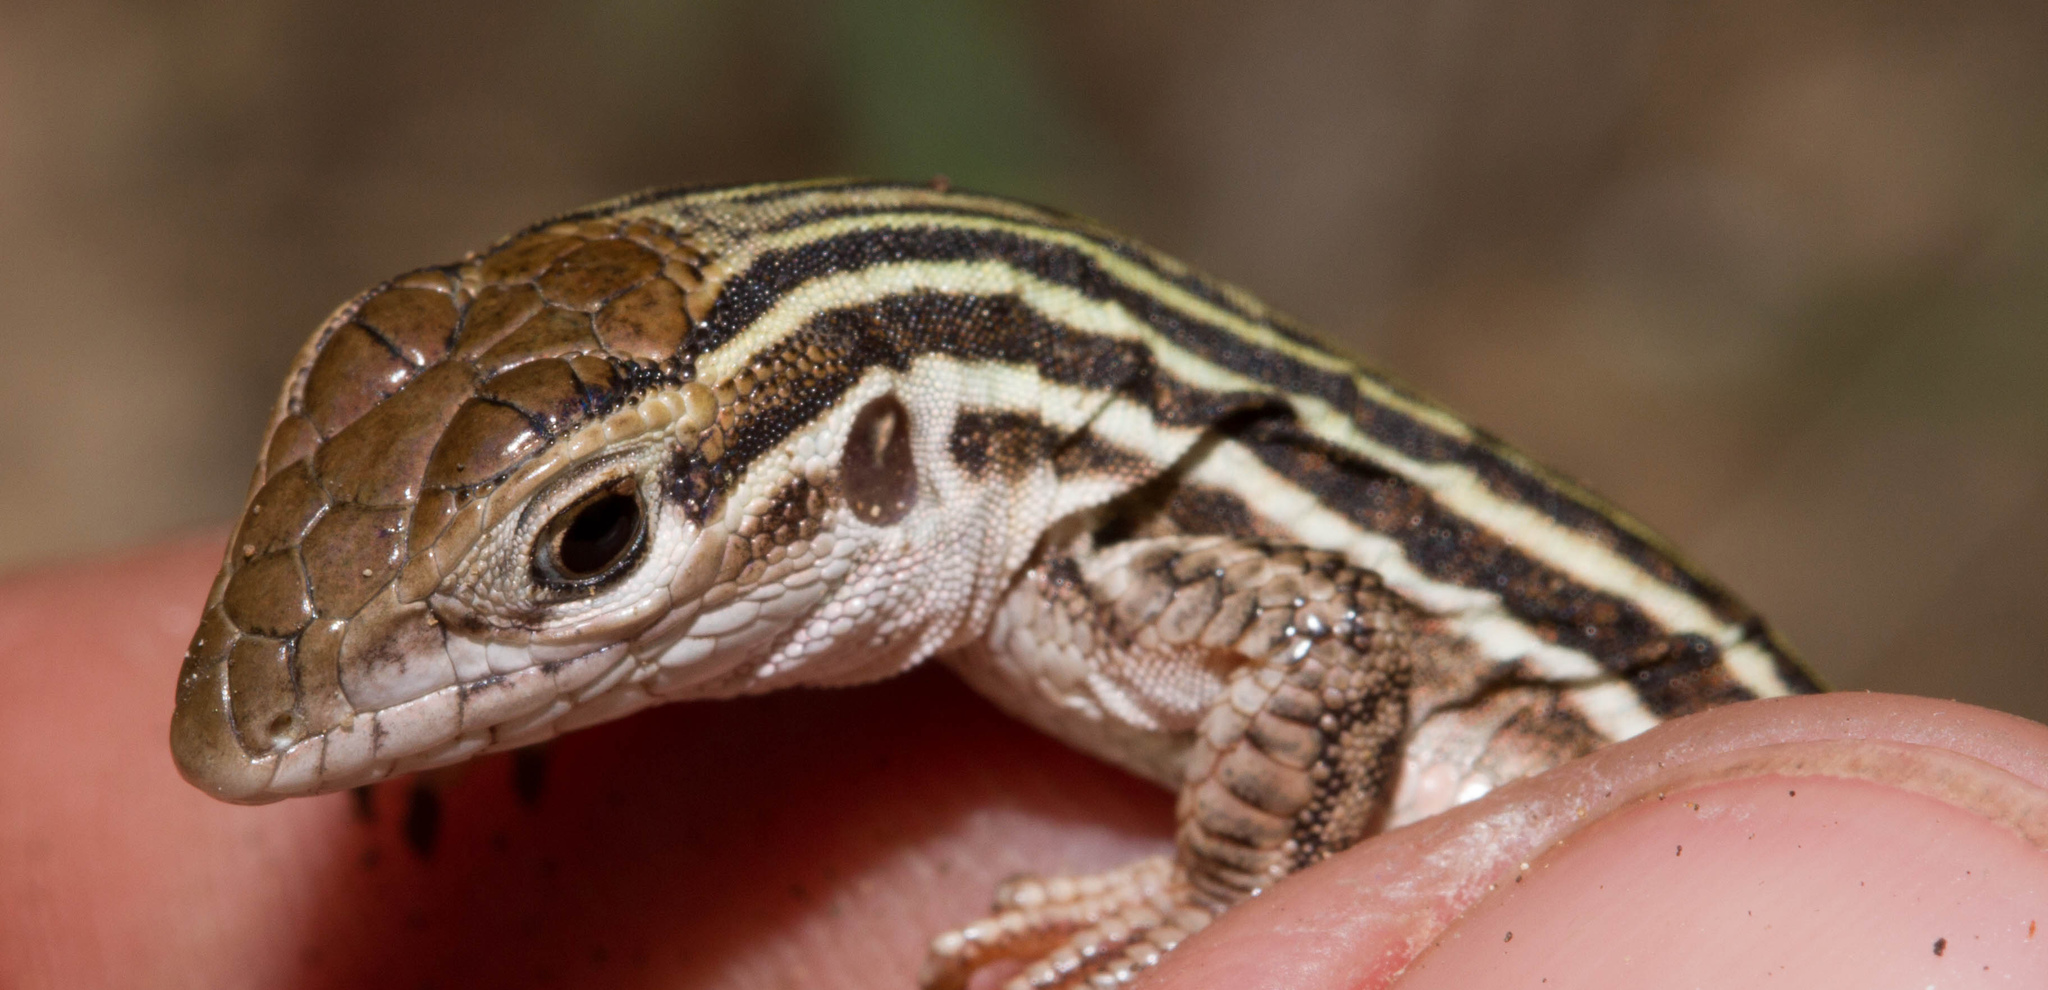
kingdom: Animalia
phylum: Chordata
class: Squamata
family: Teiidae
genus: Aspidoscelis
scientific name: Aspidoscelis gularis
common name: Eastern spotted whiptail
